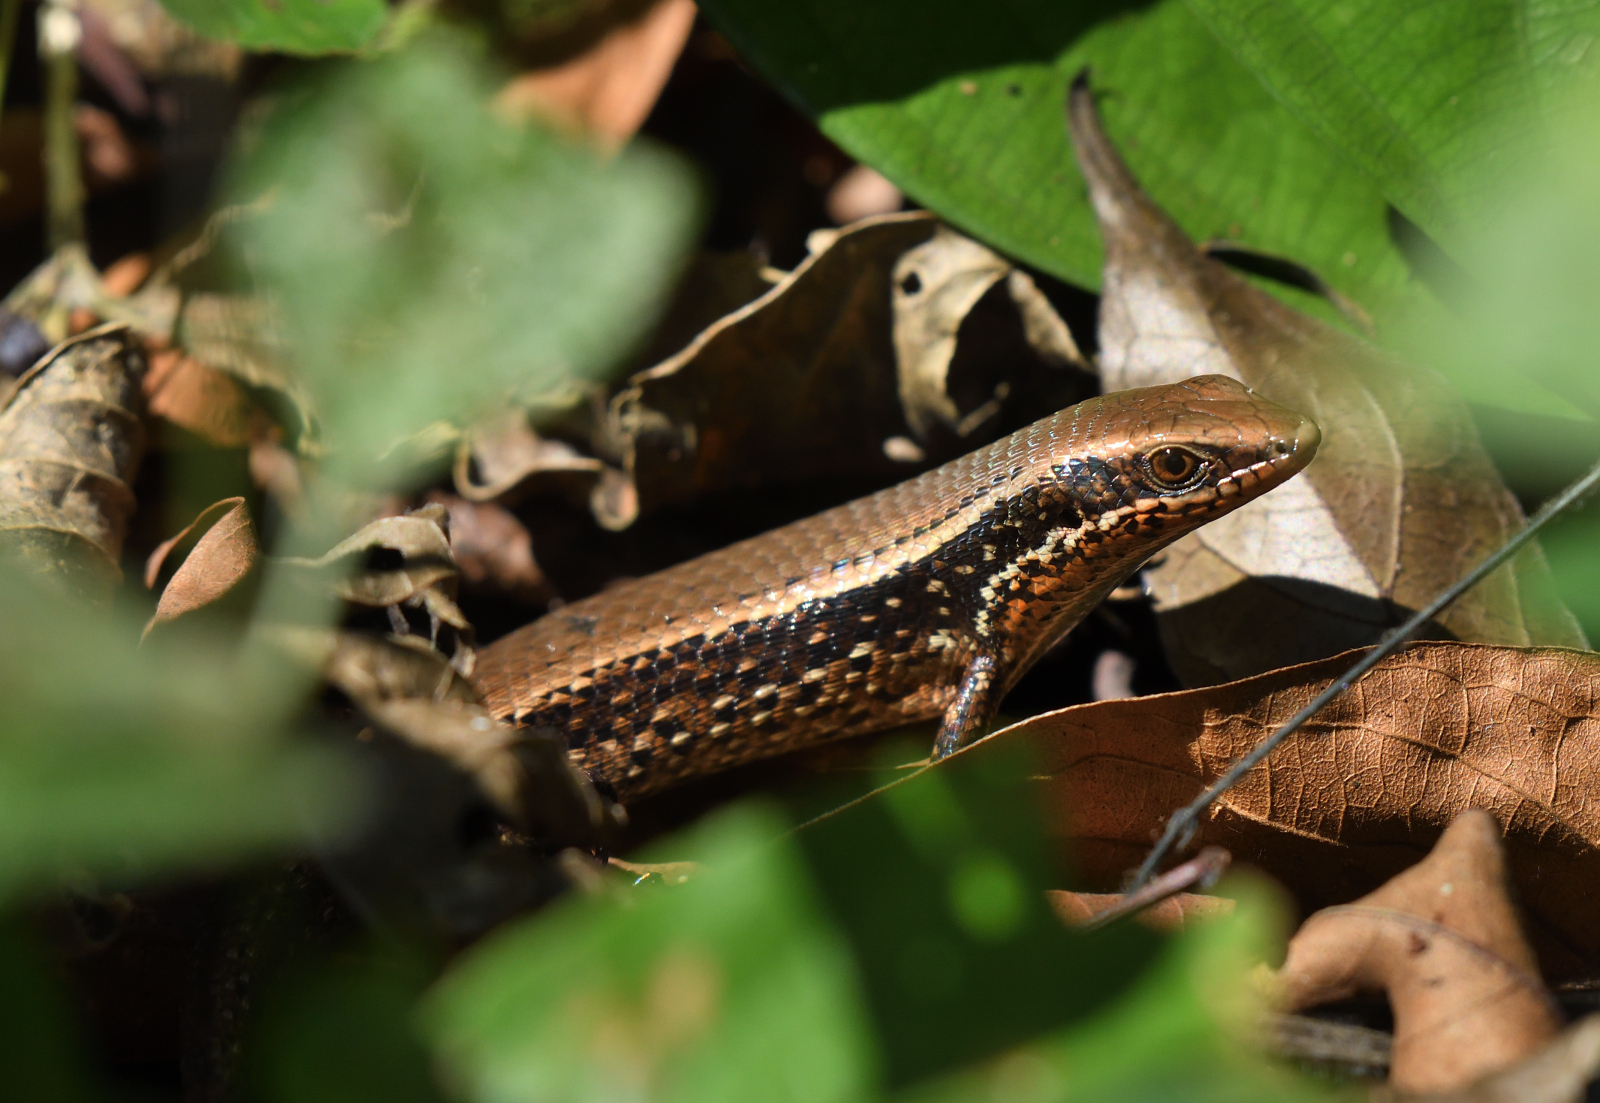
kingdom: Animalia
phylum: Chordata
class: Squamata
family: Scincidae
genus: Eutropis
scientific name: Eutropis macularia
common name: Bronze mabuya
